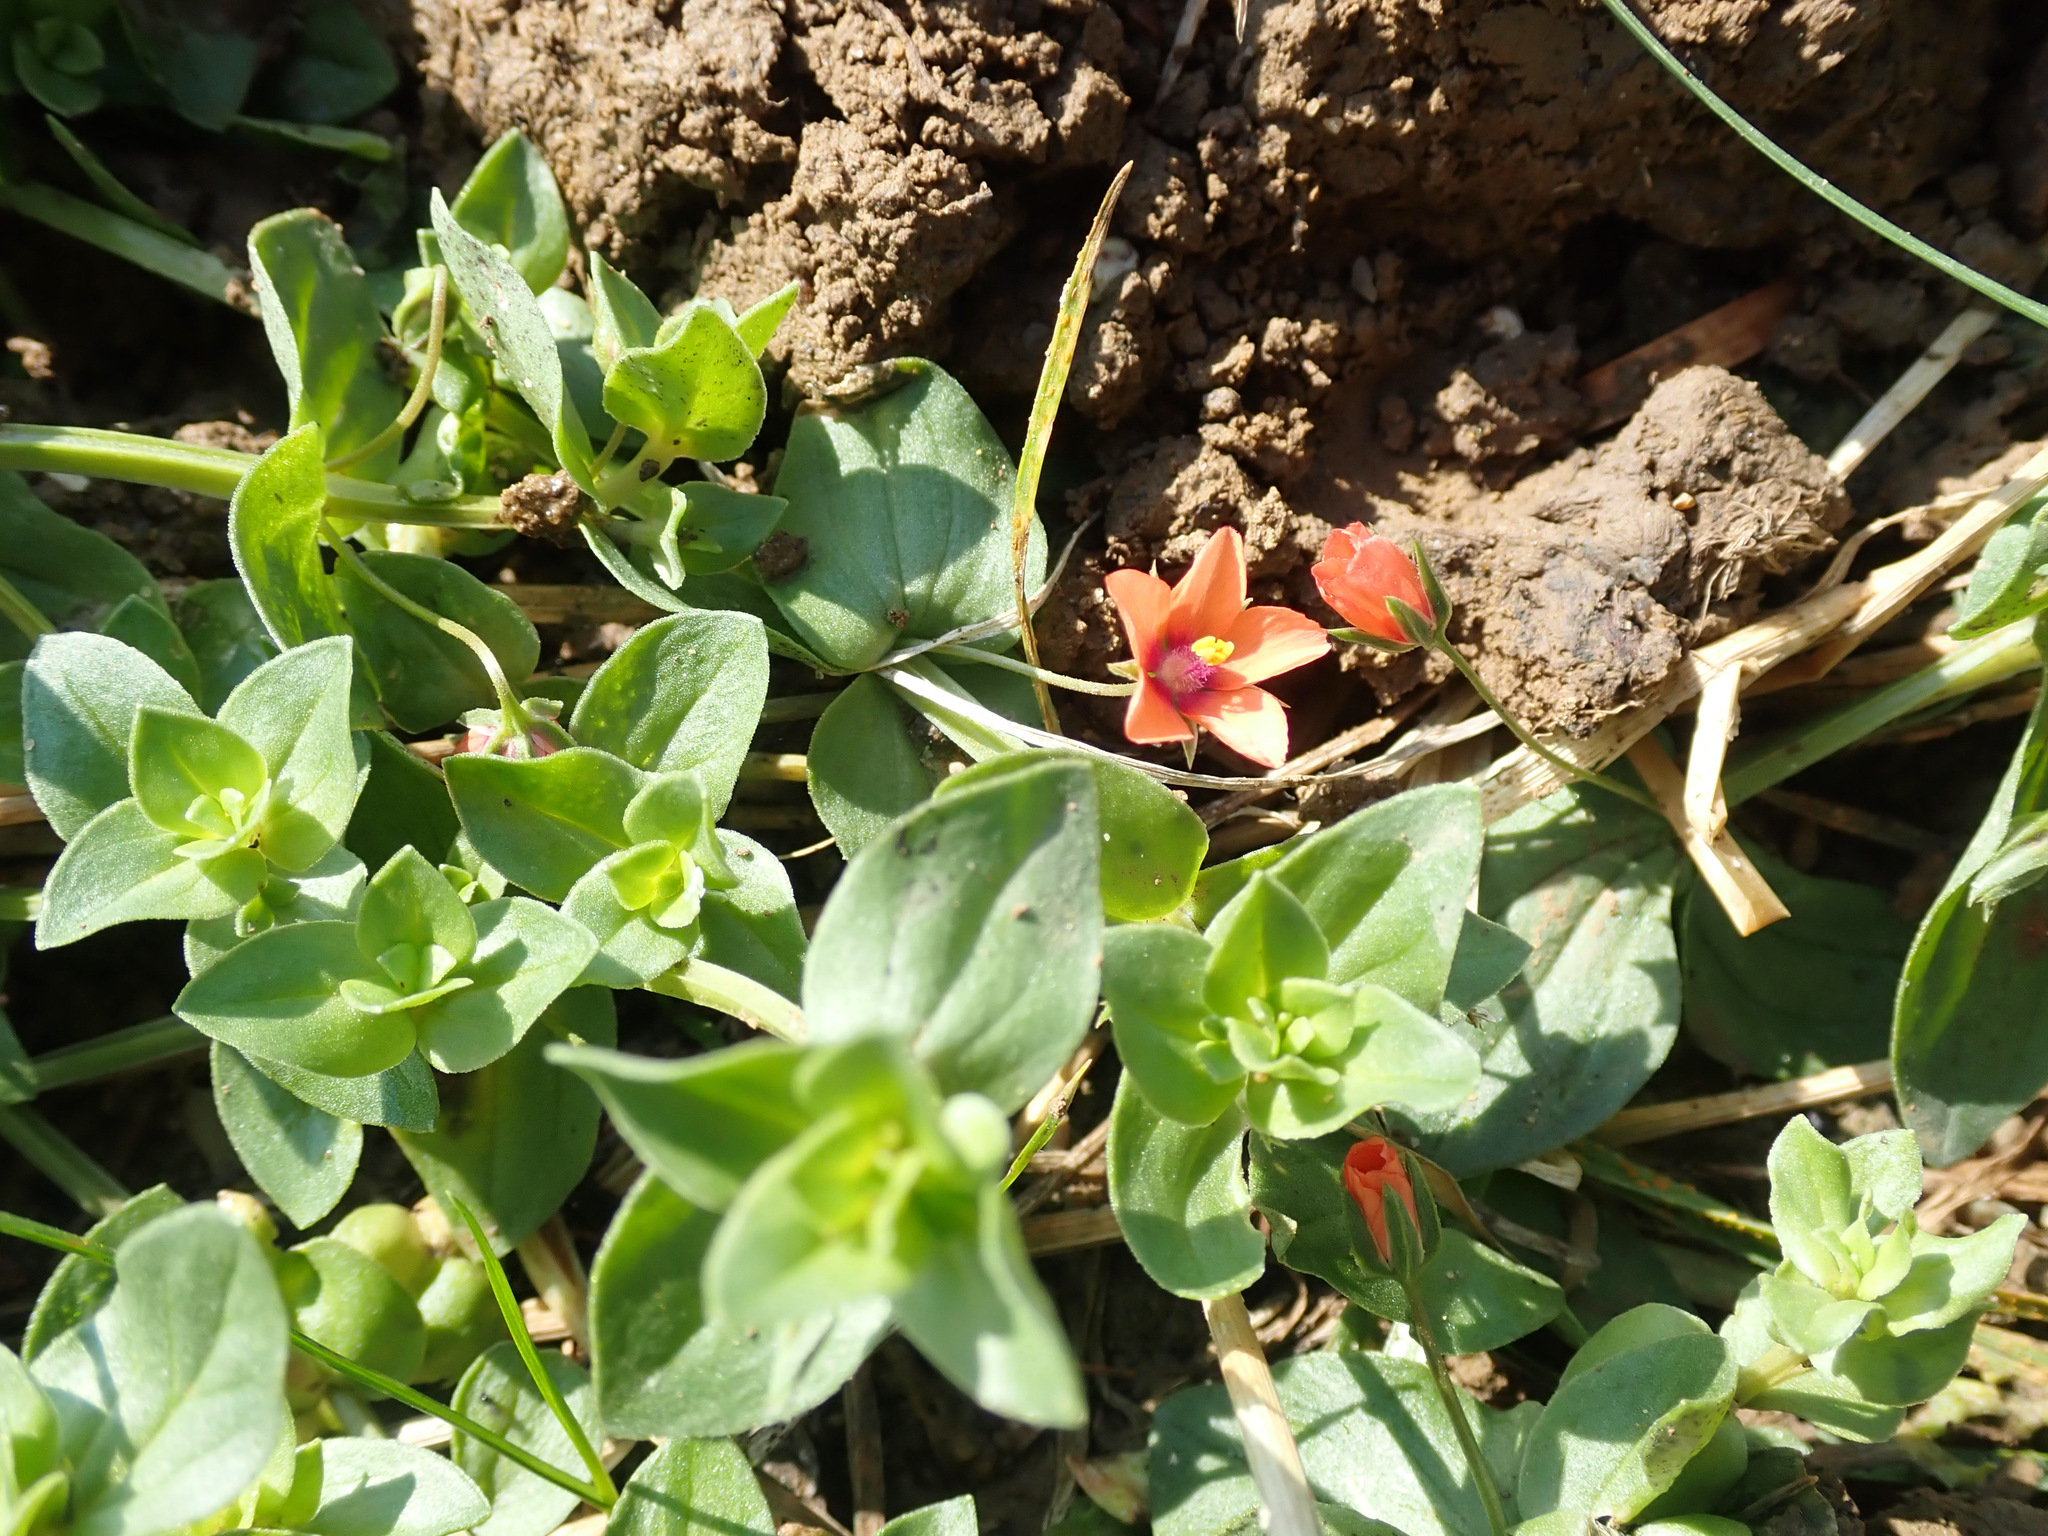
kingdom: Plantae
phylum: Tracheophyta
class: Magnoliopsida
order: Ericales
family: Primulaceae
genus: Lysimachia
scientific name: Lysimachia arvensis
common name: Scarlet pimpernel
